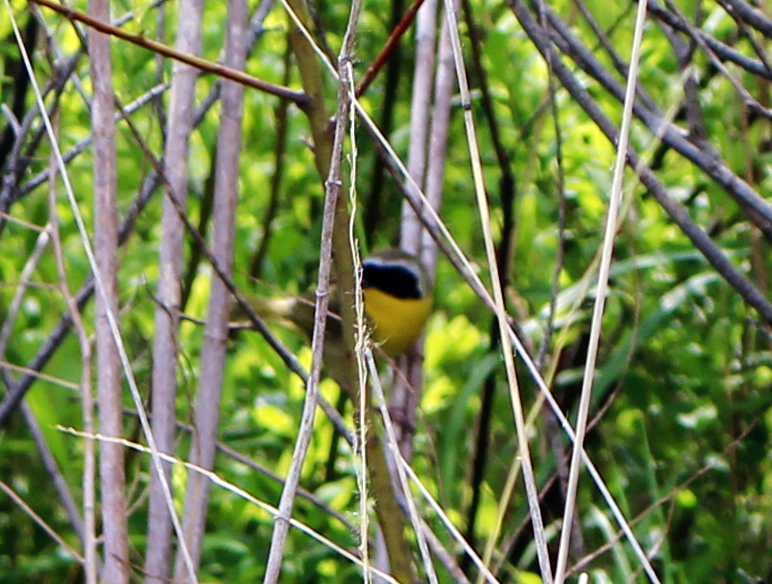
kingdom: Animalia
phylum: Chordata
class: Aves
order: Passeriformes
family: Parulidae
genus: Geothlypis
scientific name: Geothlypis trichas
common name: Common yellowthroat
